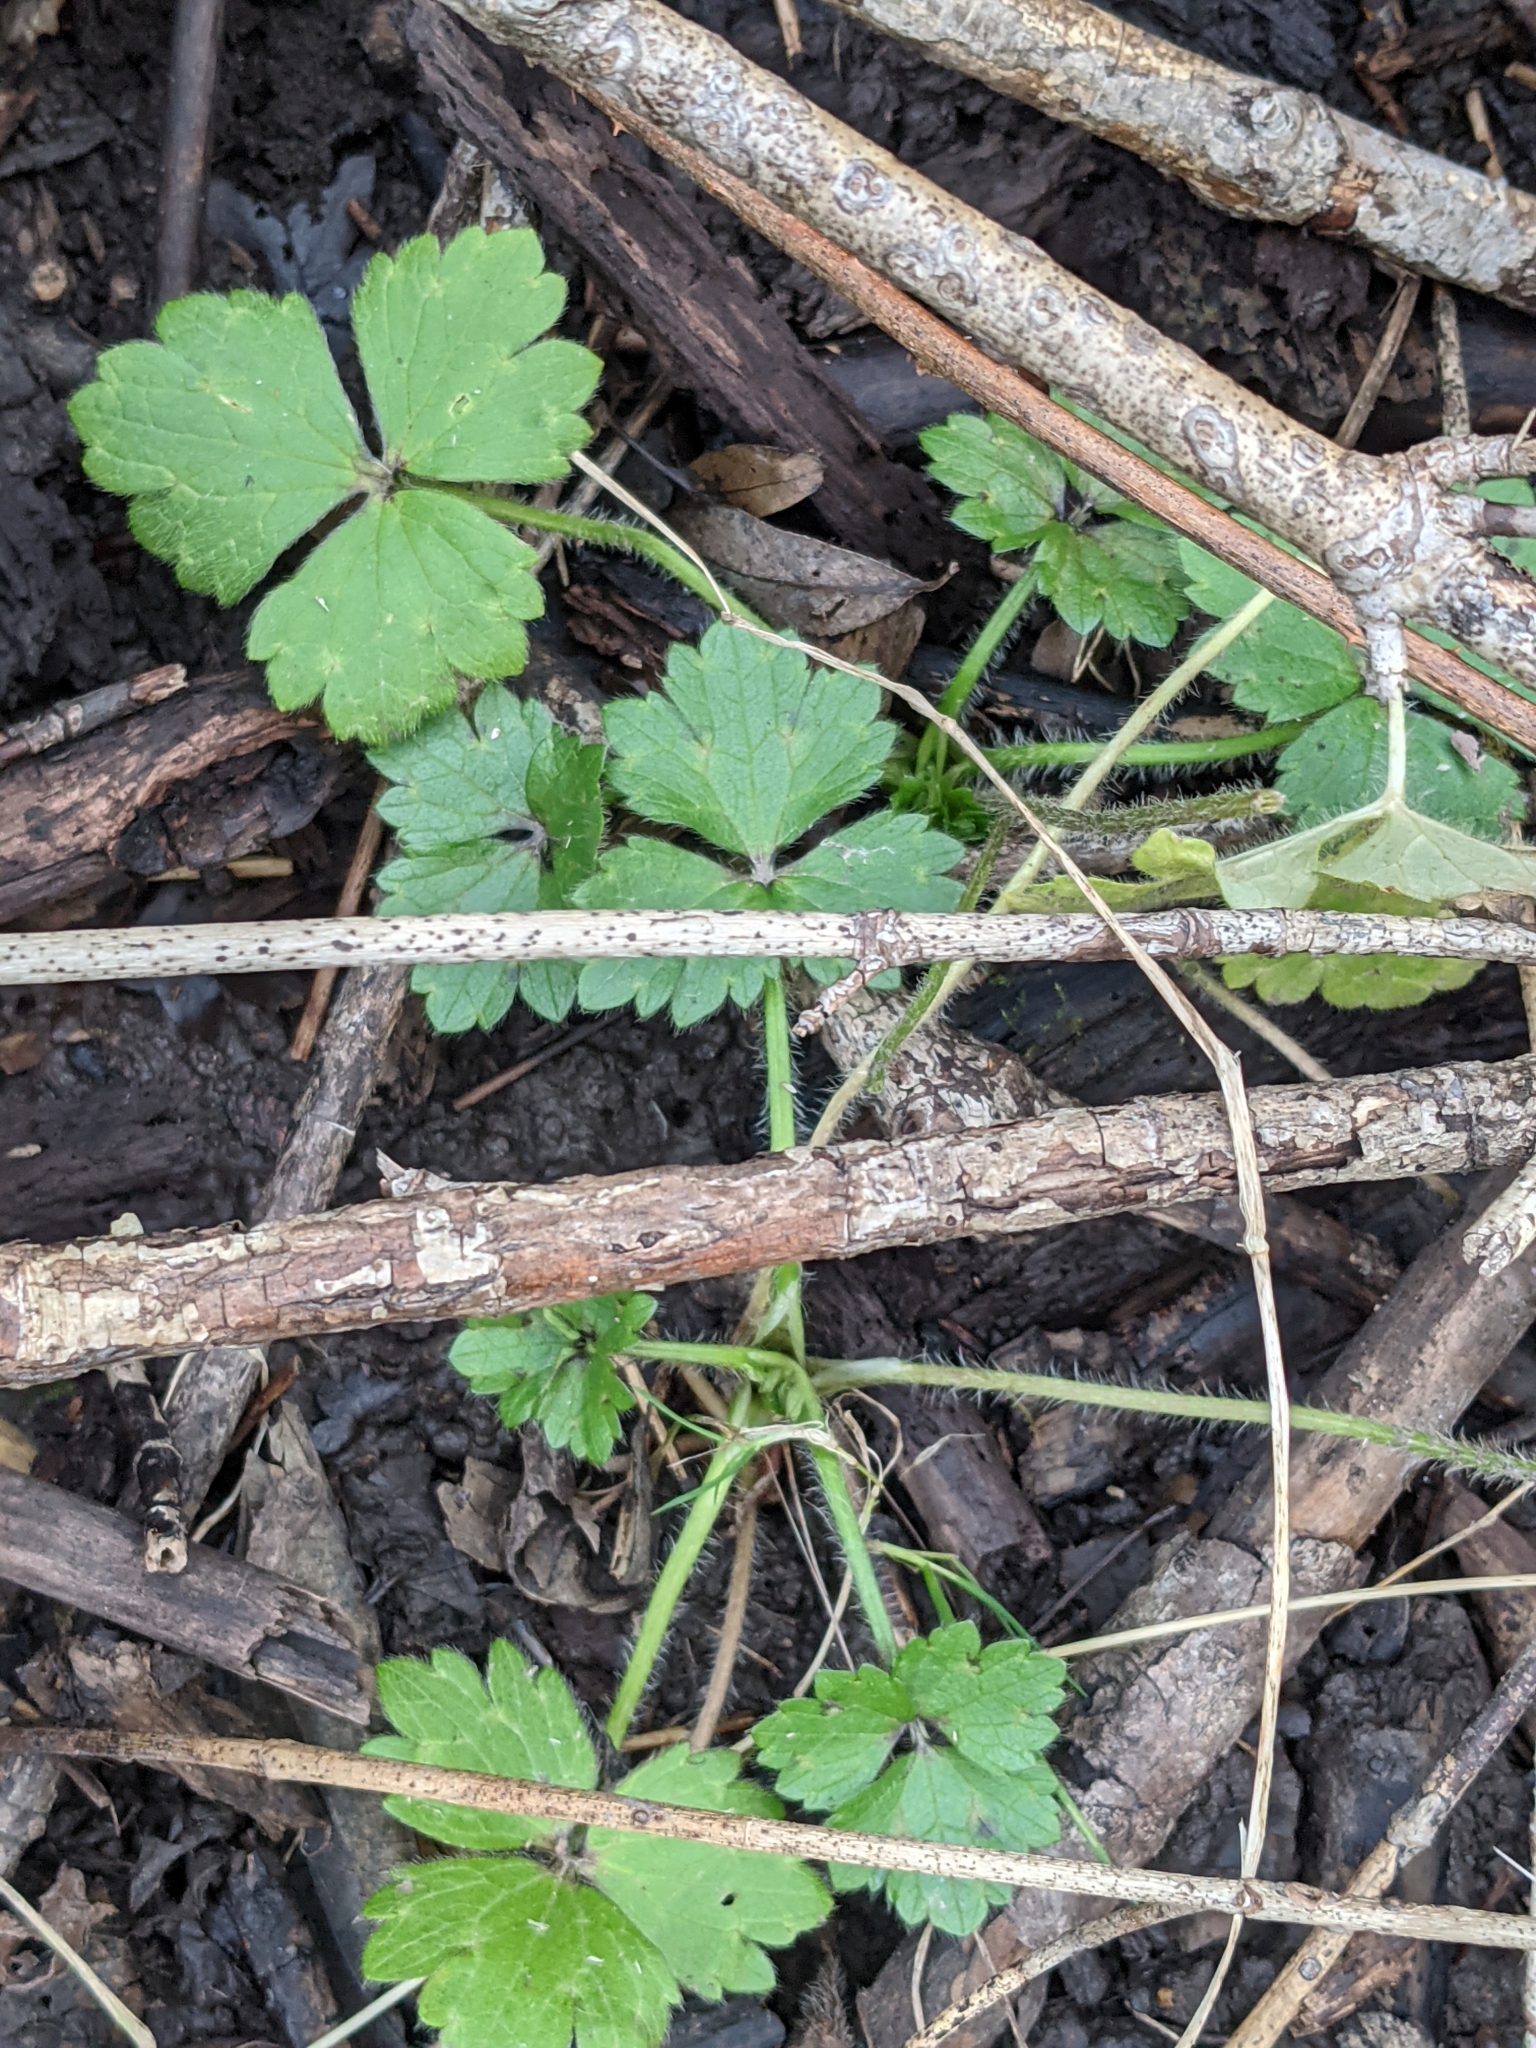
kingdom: Plantae
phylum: Tracheophyta
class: Magnoliopsida
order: Ranunculales
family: Ranunculaceae
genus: Ranunculus
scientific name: Ranunculus repens
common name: Creeping buttercup
